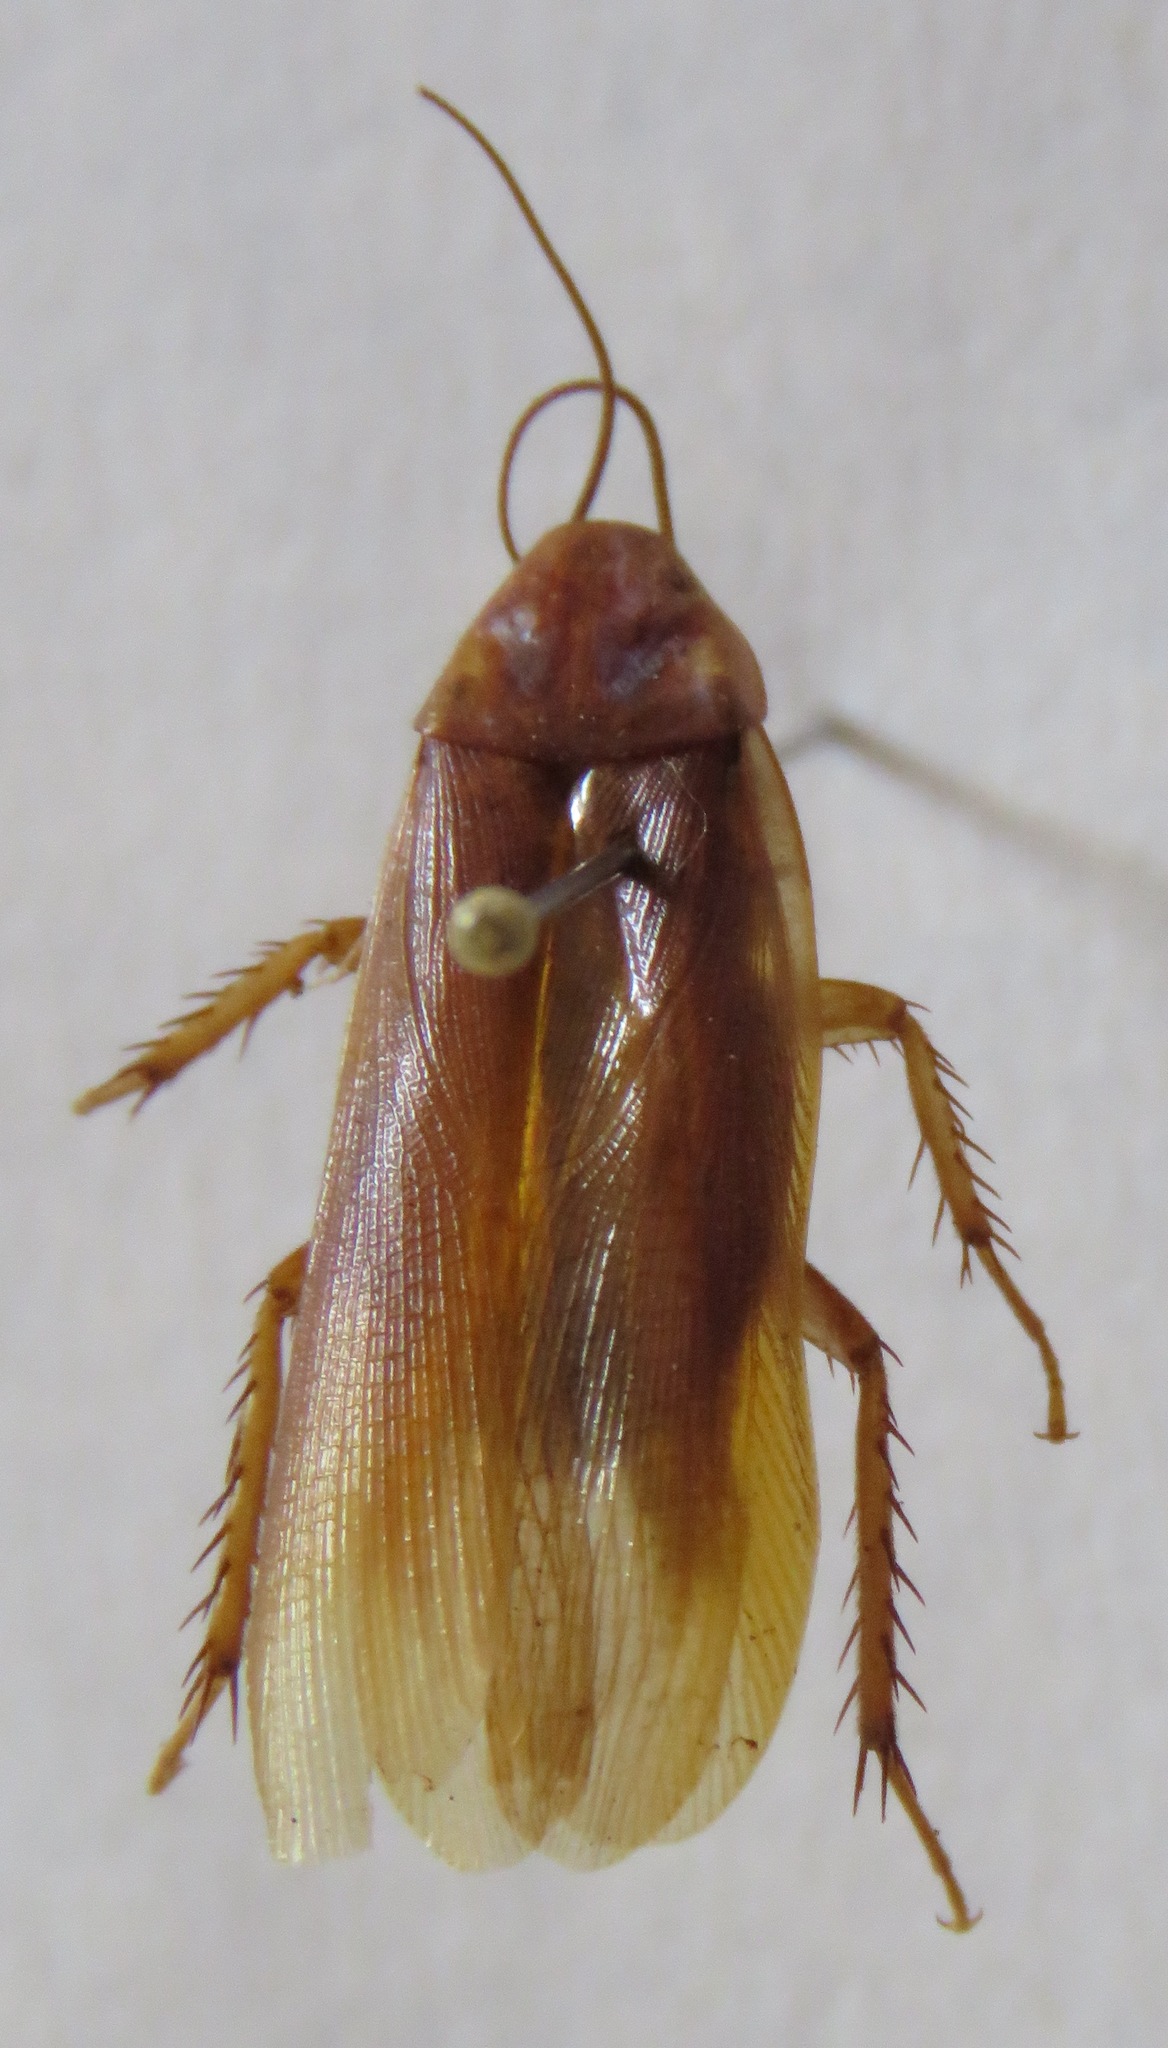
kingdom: Animalia
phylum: Arthropoda
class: Insecta
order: Blattodea
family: Ectobiidae
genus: Ischnoptera
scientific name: Ischnoptera rufa
